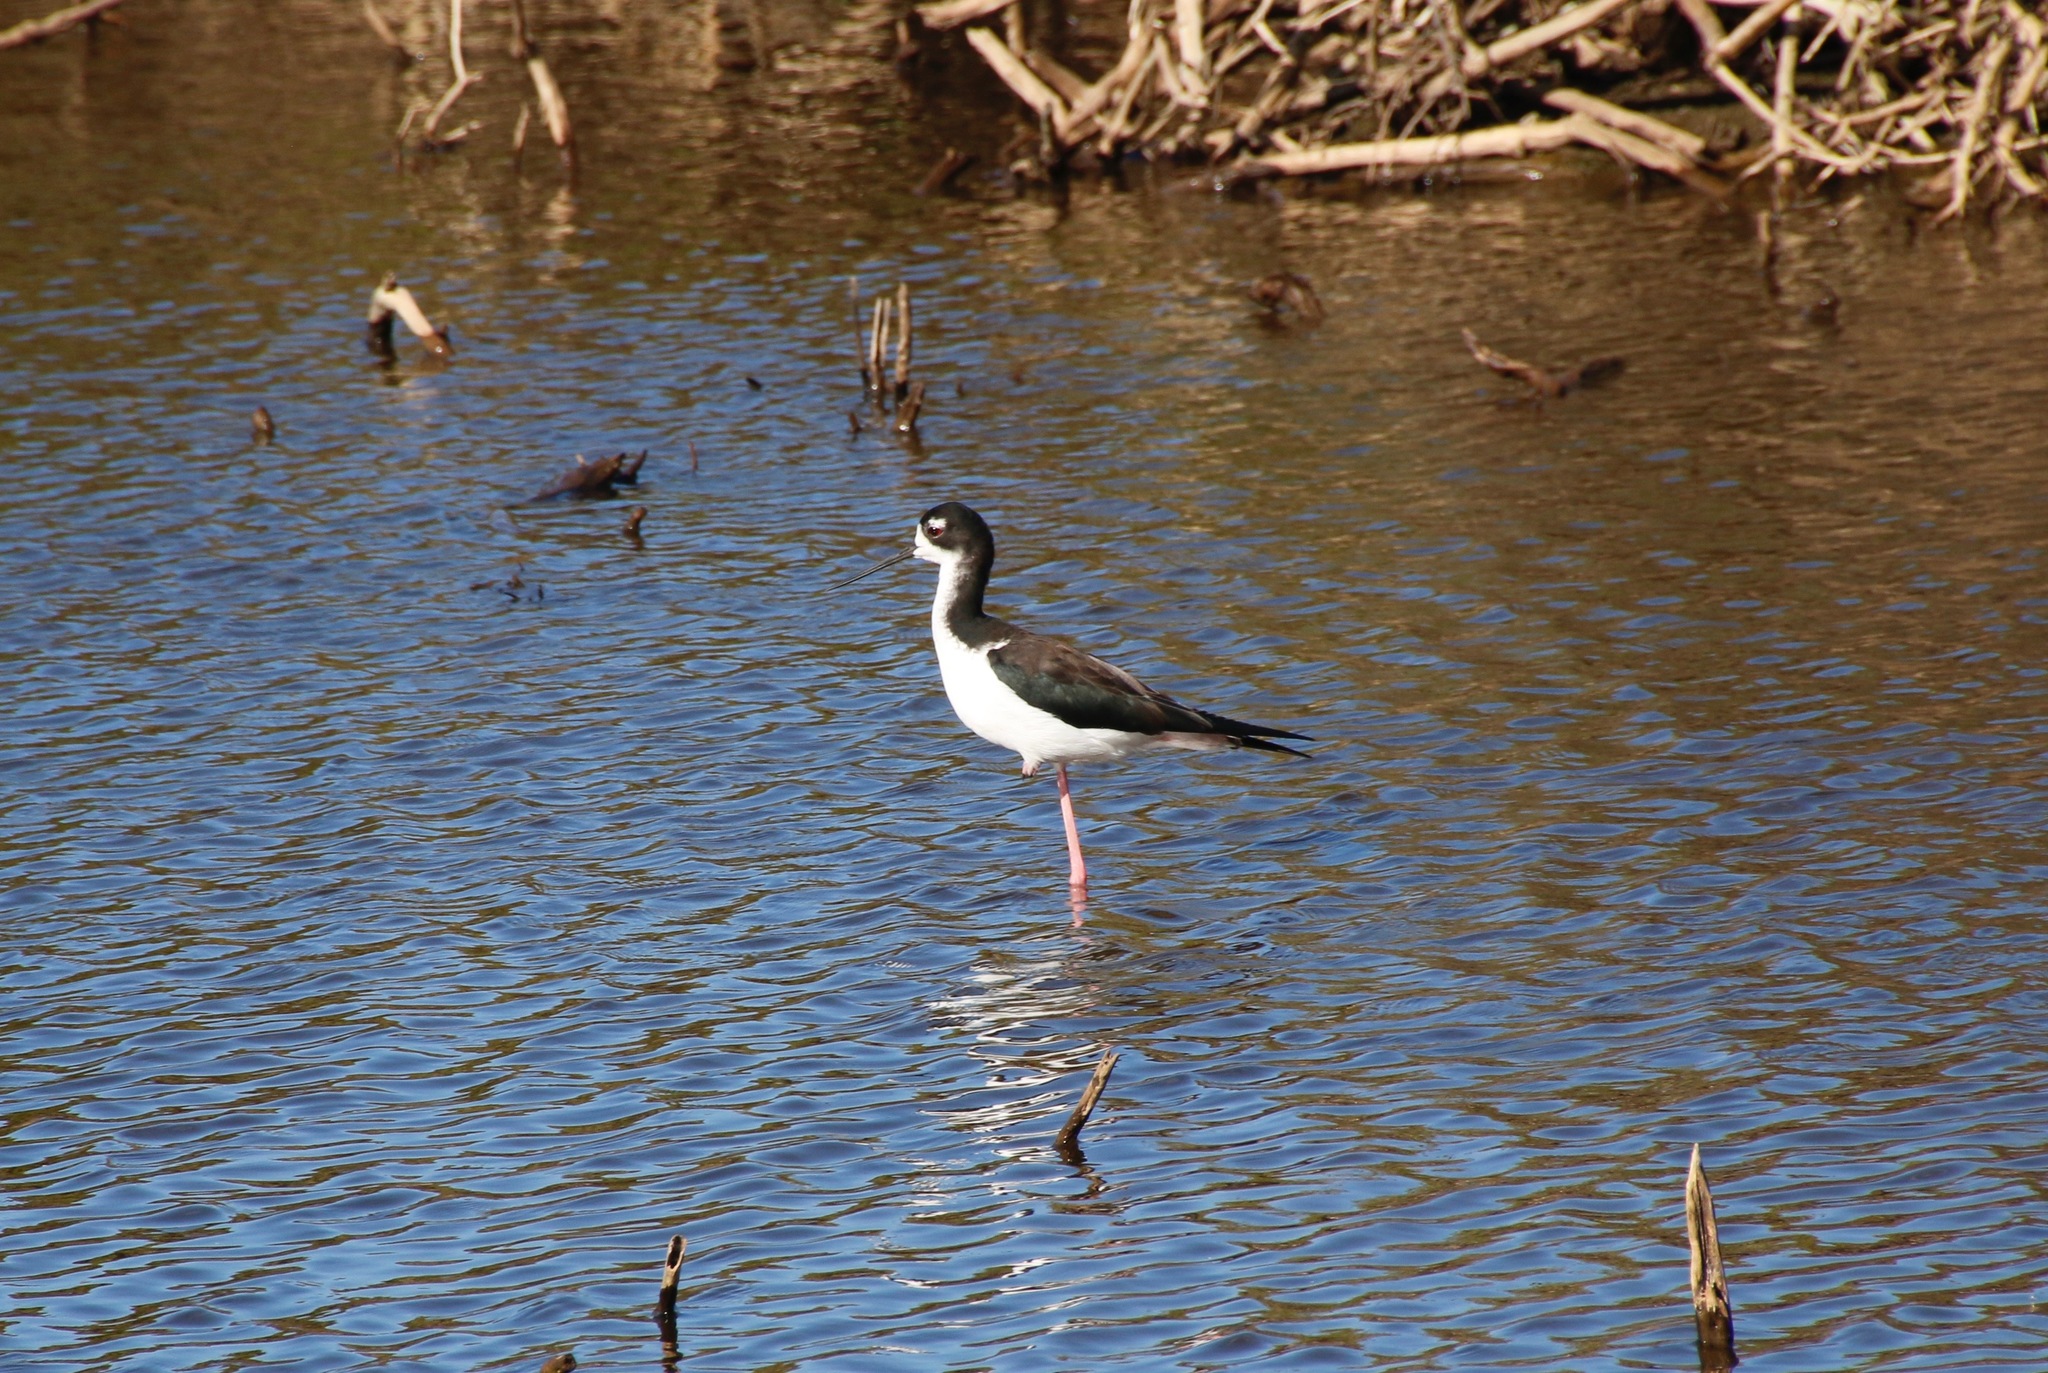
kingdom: Animalia
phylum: Chordata
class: Aves
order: Charadriiformes
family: Recurvirostridae
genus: Himantopus
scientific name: Himantopus mexicanus
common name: Black-necked stilt
